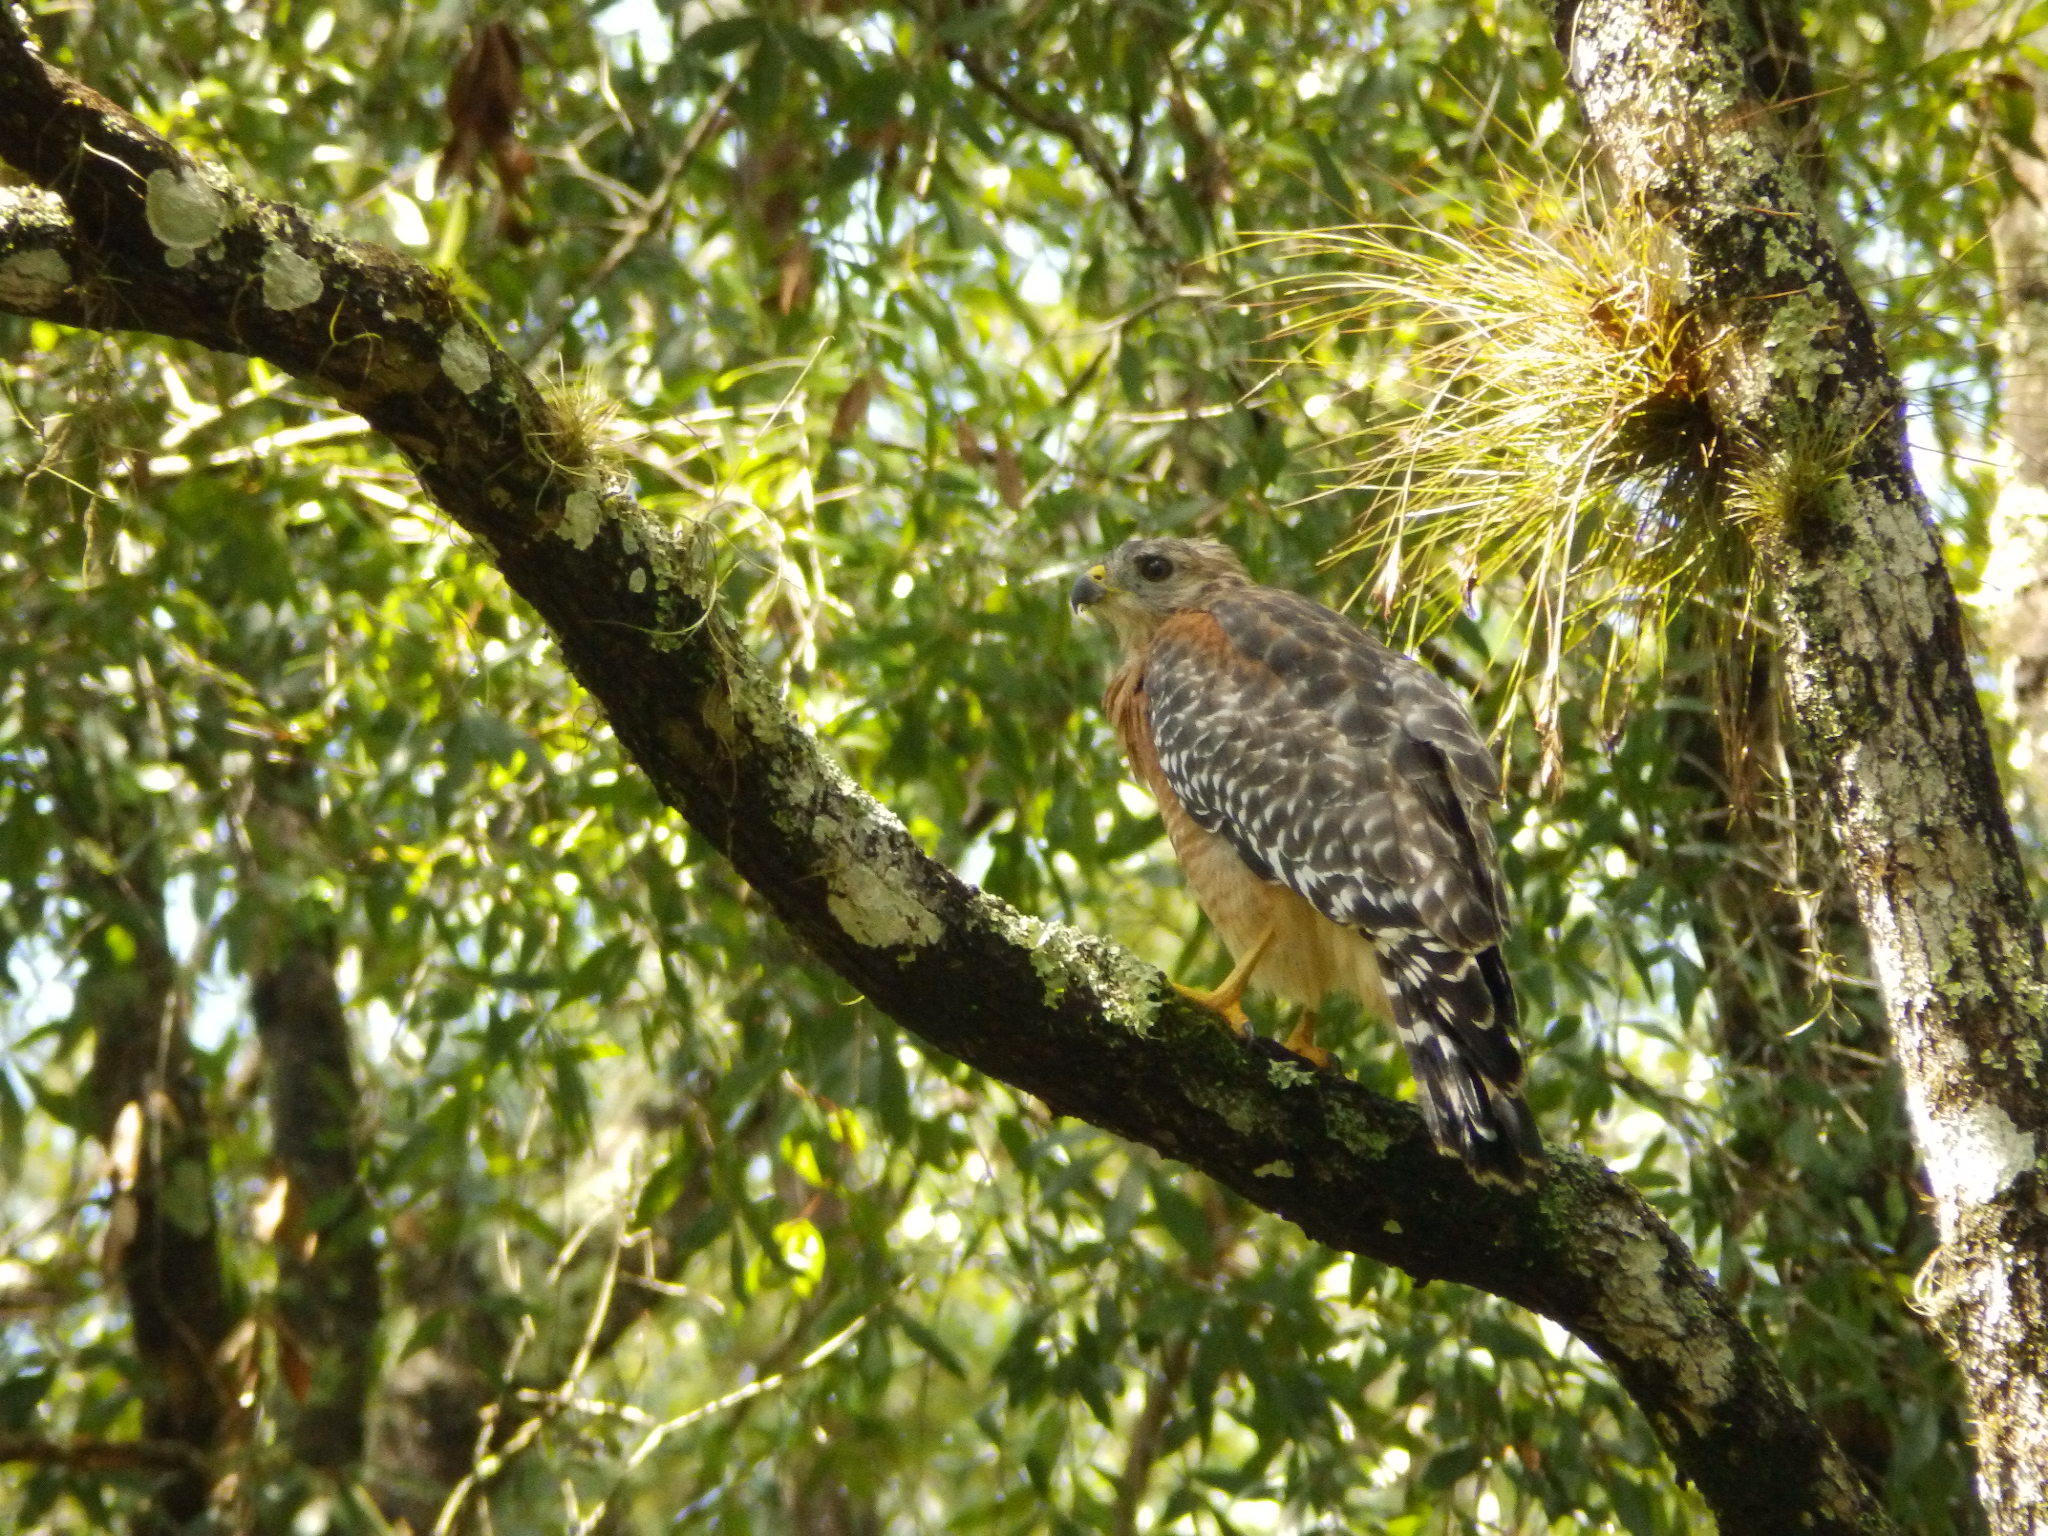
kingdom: Animalia
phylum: Chordata
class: Aves
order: Accipitriformes
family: Accipitridae
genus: Buteo
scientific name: Buteo lineatus
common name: Red-shouldered hawk
